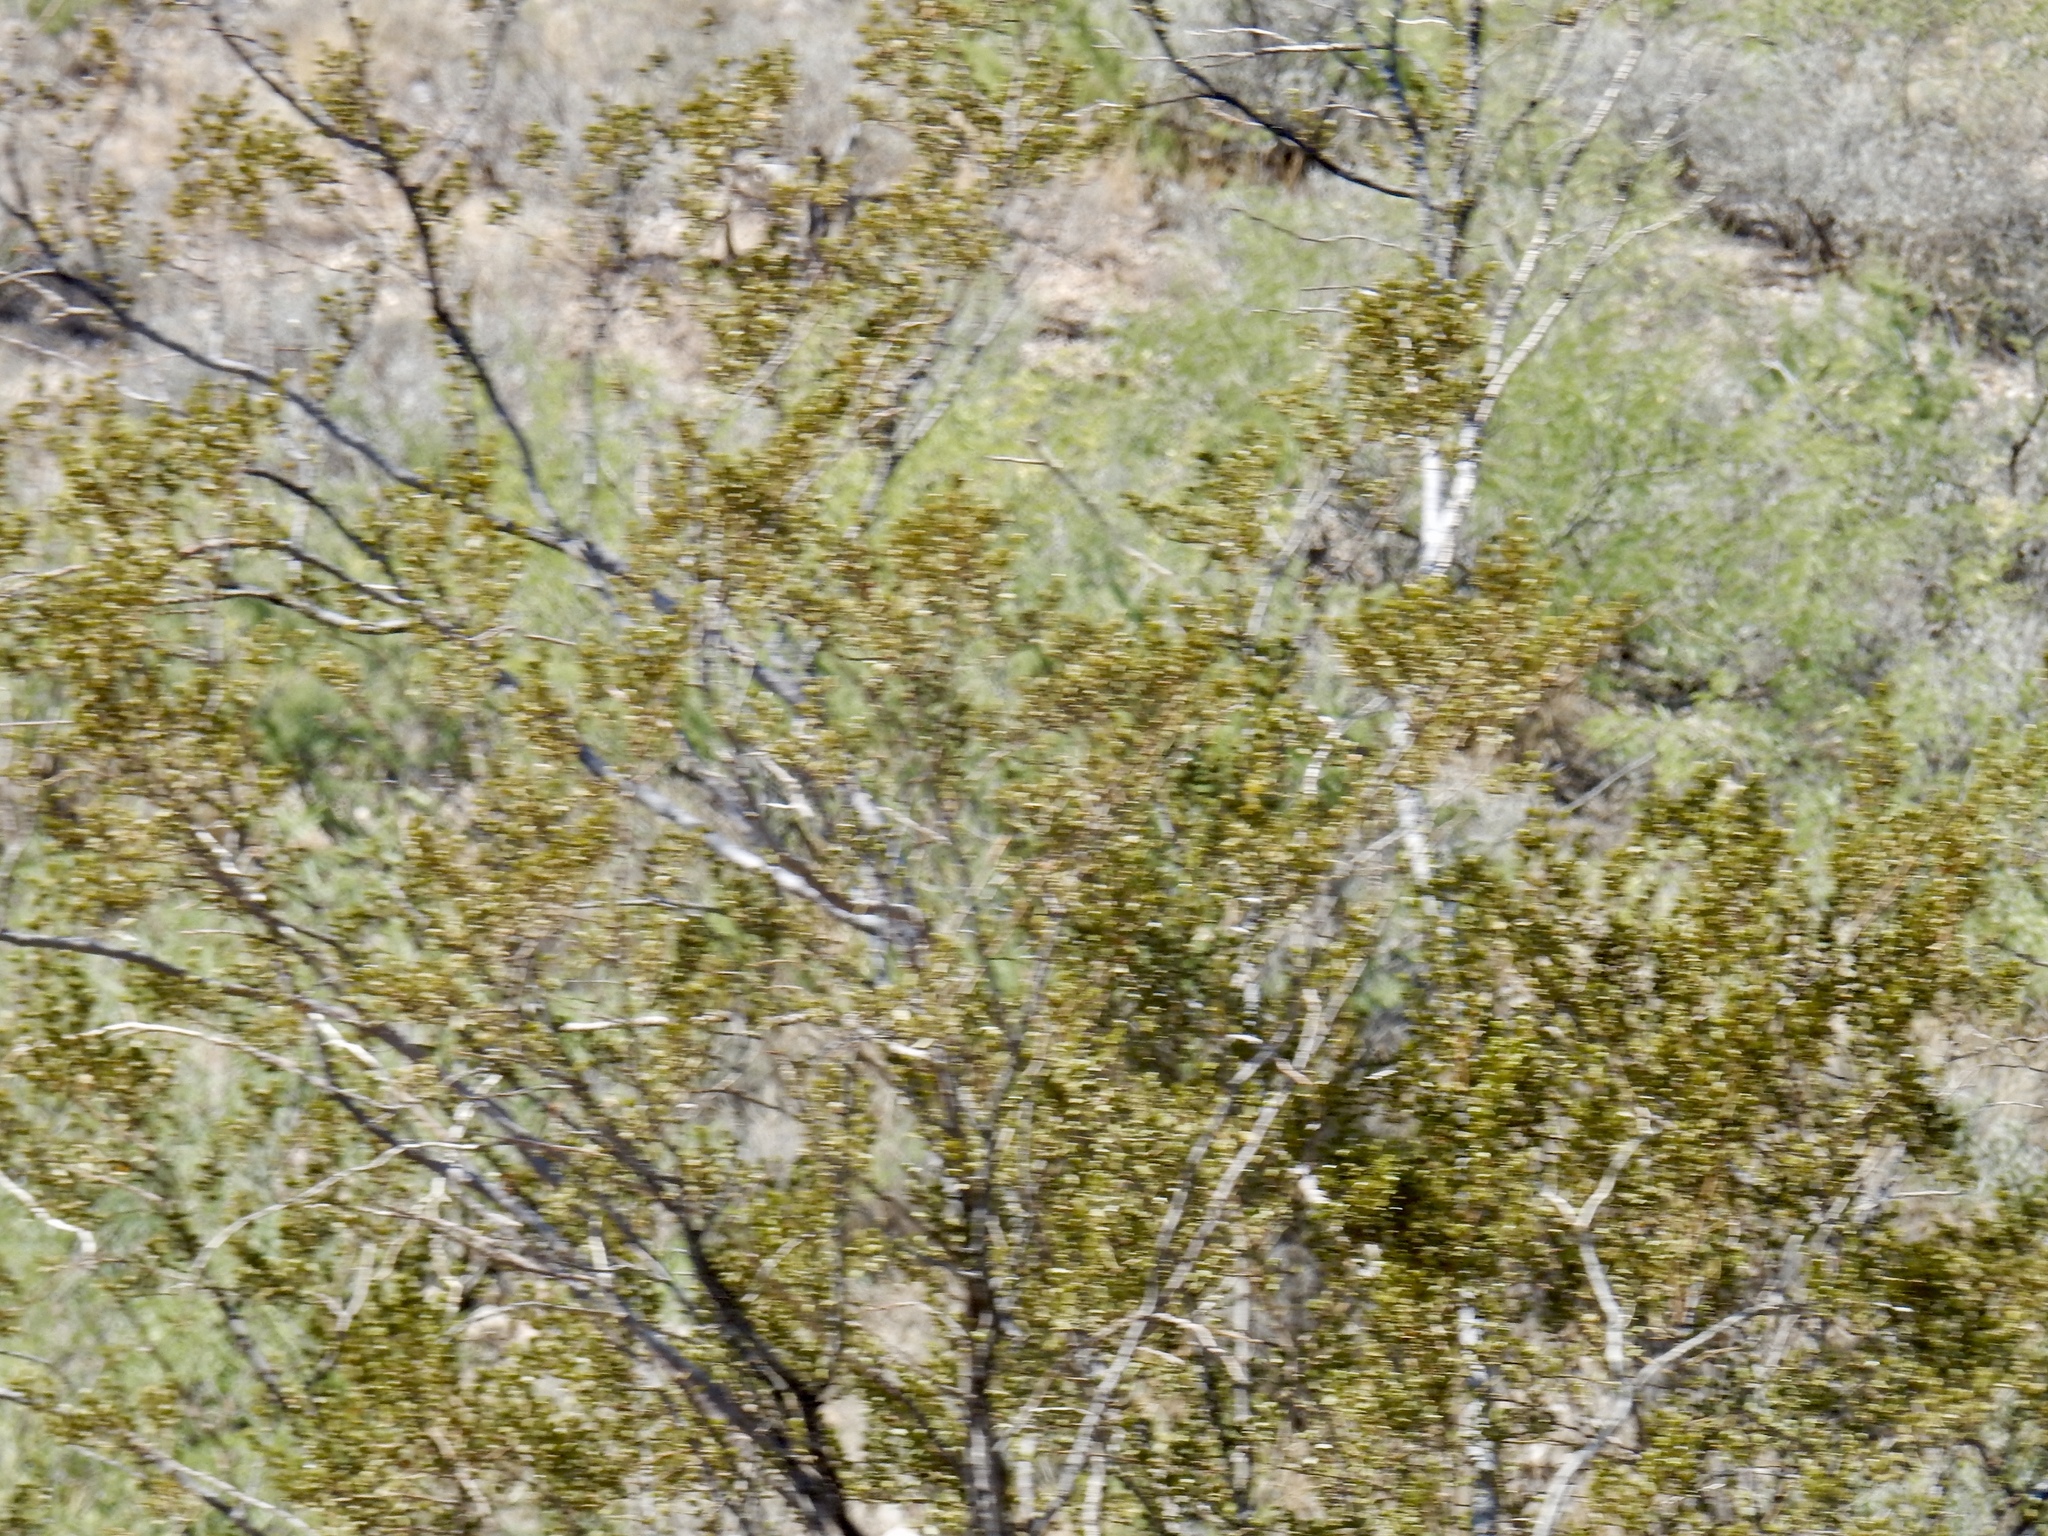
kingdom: Plantae
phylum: Tracheophyta
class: Magnoliopsida
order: Zygophyllales
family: Zygophyllaceae
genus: Larrea
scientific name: Larrea tridentata
